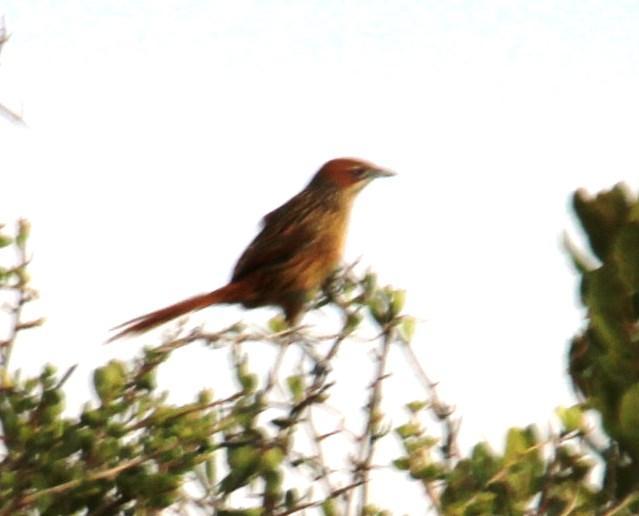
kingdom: Animalia
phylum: Chordata
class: Aves
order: Passeriformes
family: Macrosphenidae
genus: Sphenoeacus
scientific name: Sphenoeacus afer
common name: Cape grassbird
